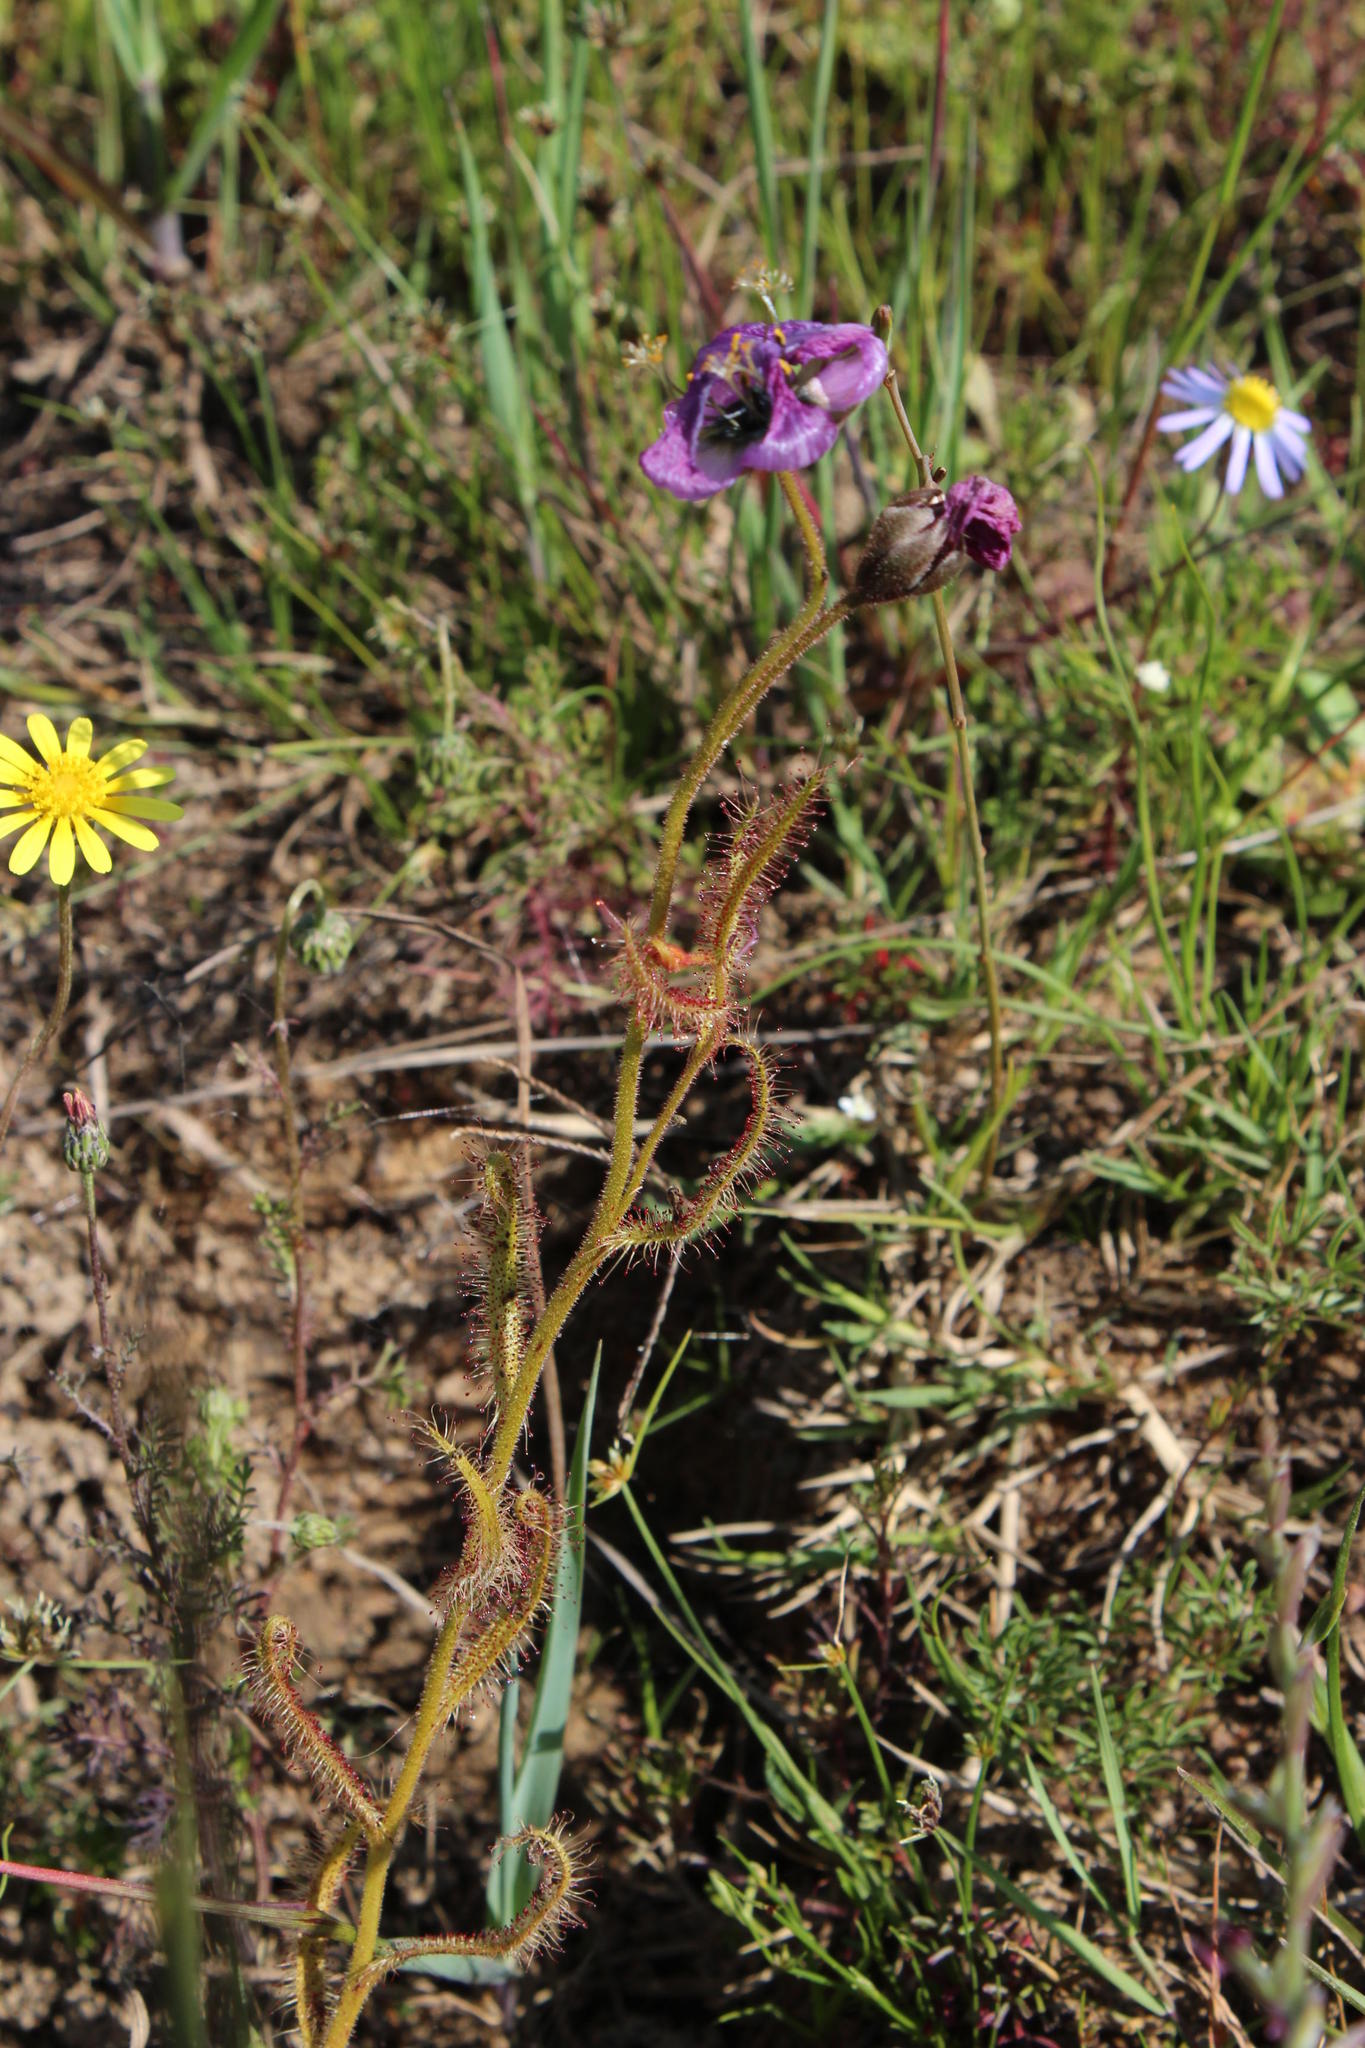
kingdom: Plantae
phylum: Tracheophyta
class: Magnoliopsida
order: Caryophyllales
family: Droseraceae
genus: Drosera
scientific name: Drosera cistiflora
